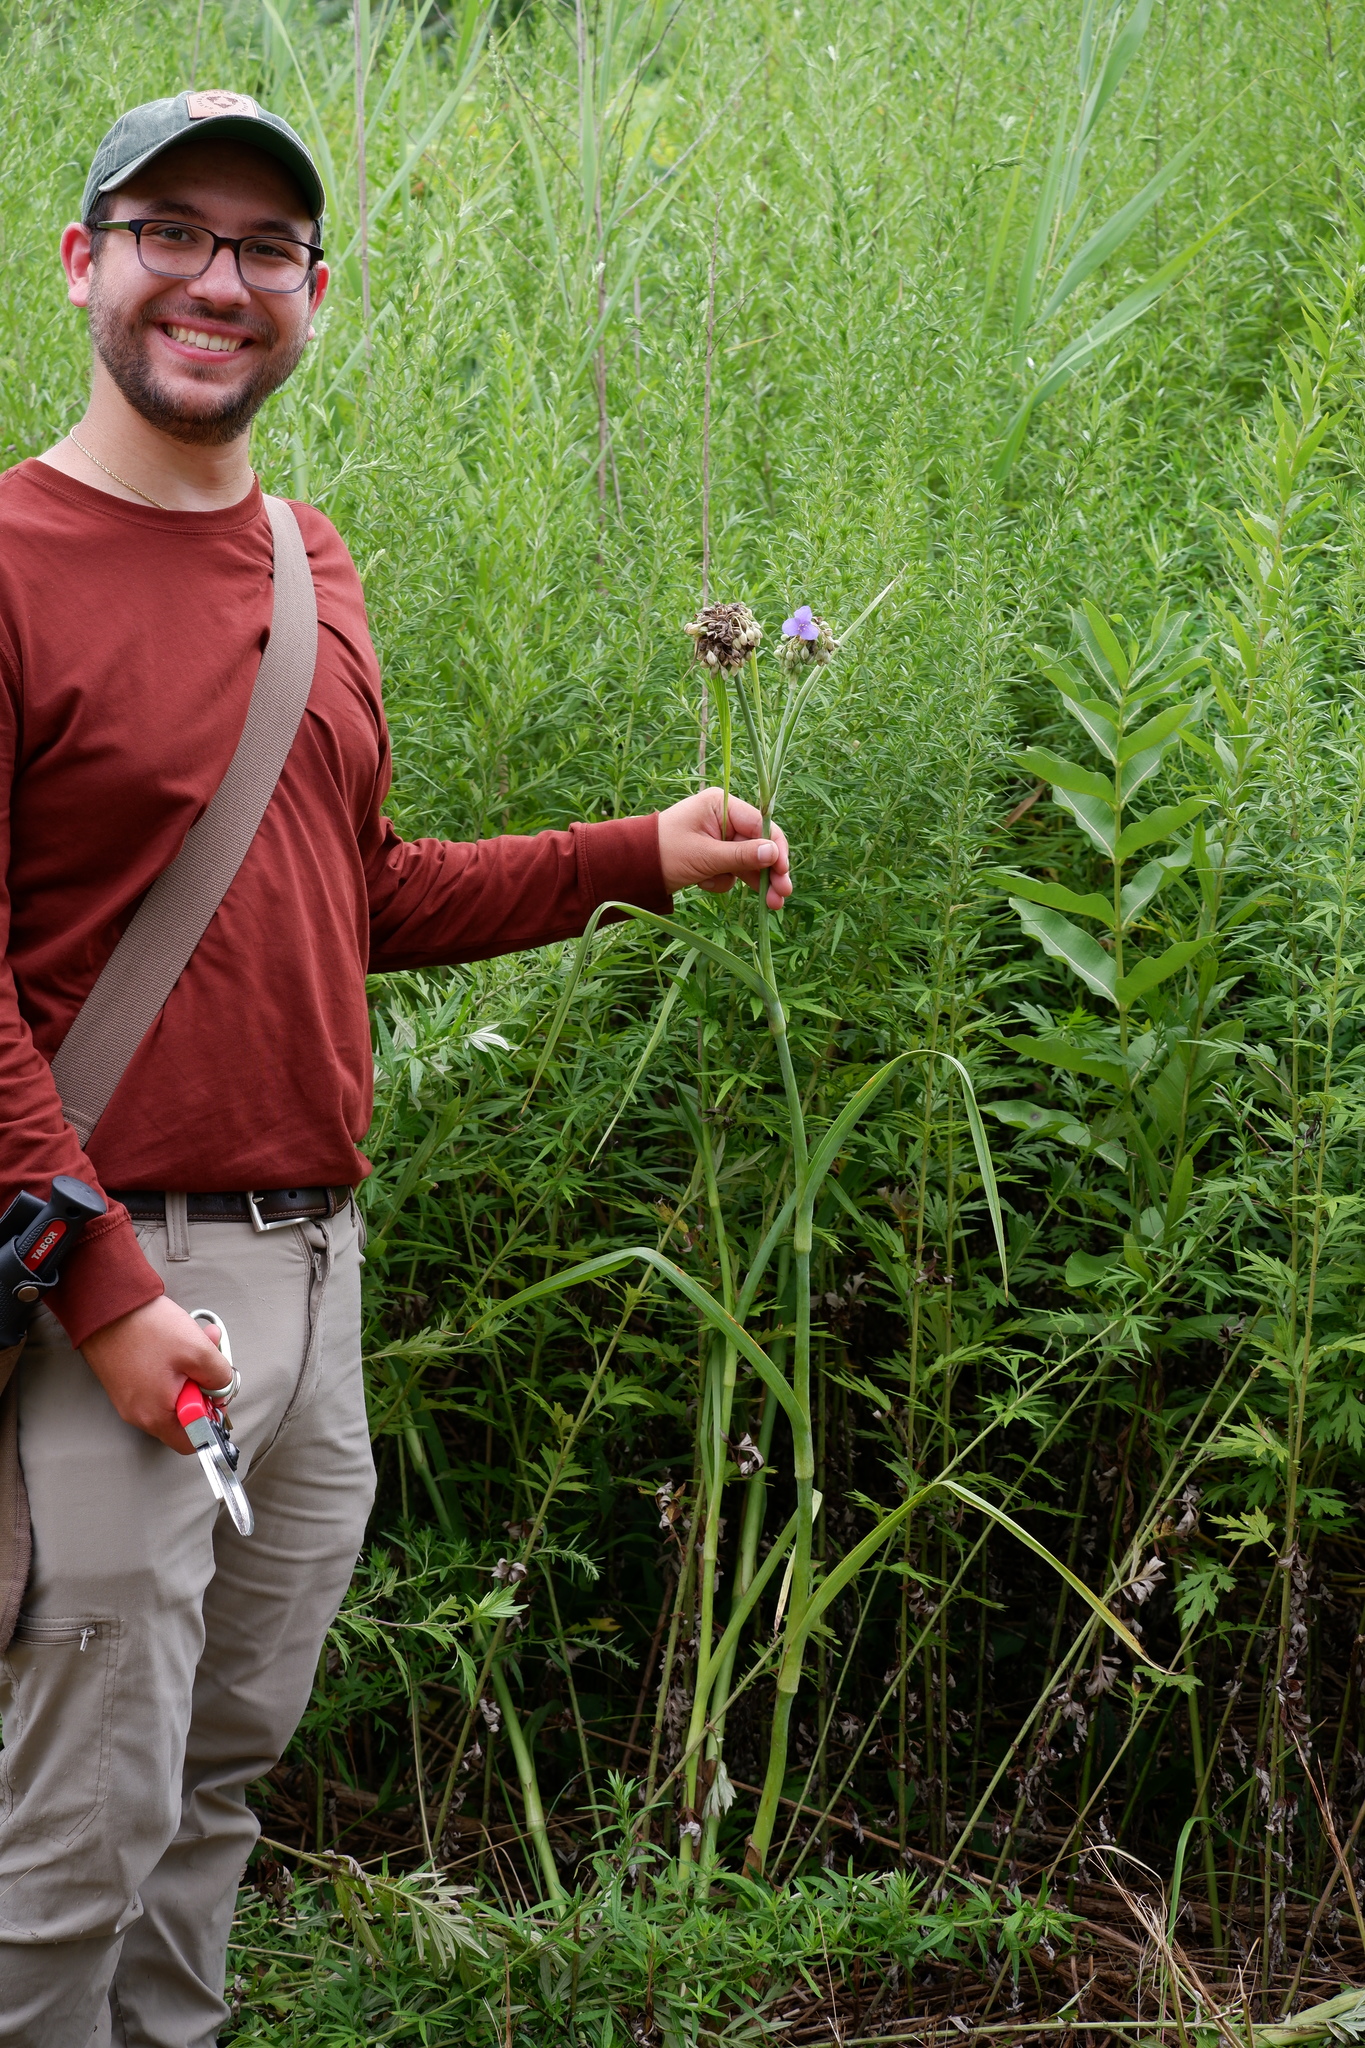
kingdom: Plantae
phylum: Tracheophyta
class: Liliopsida
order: Commelinales
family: Commelinaceae
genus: Tradescantia
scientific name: Tradescantia ohiensis
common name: Ohio spiderwort
